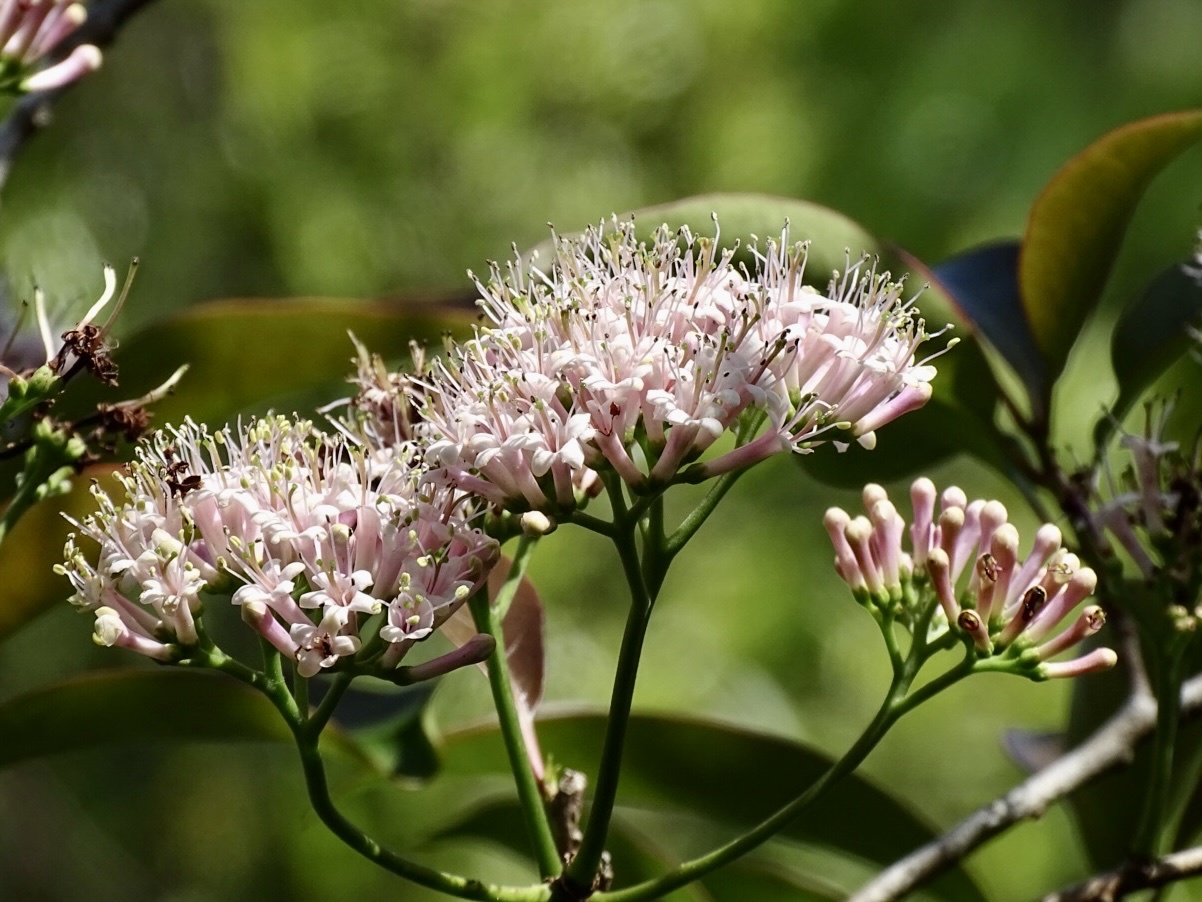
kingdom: Plantae
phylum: Tracheophyta
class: Magnoliopsida
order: Boraginales
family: Ehretiaceae
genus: Ehretia
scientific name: Ehretia longiflora
